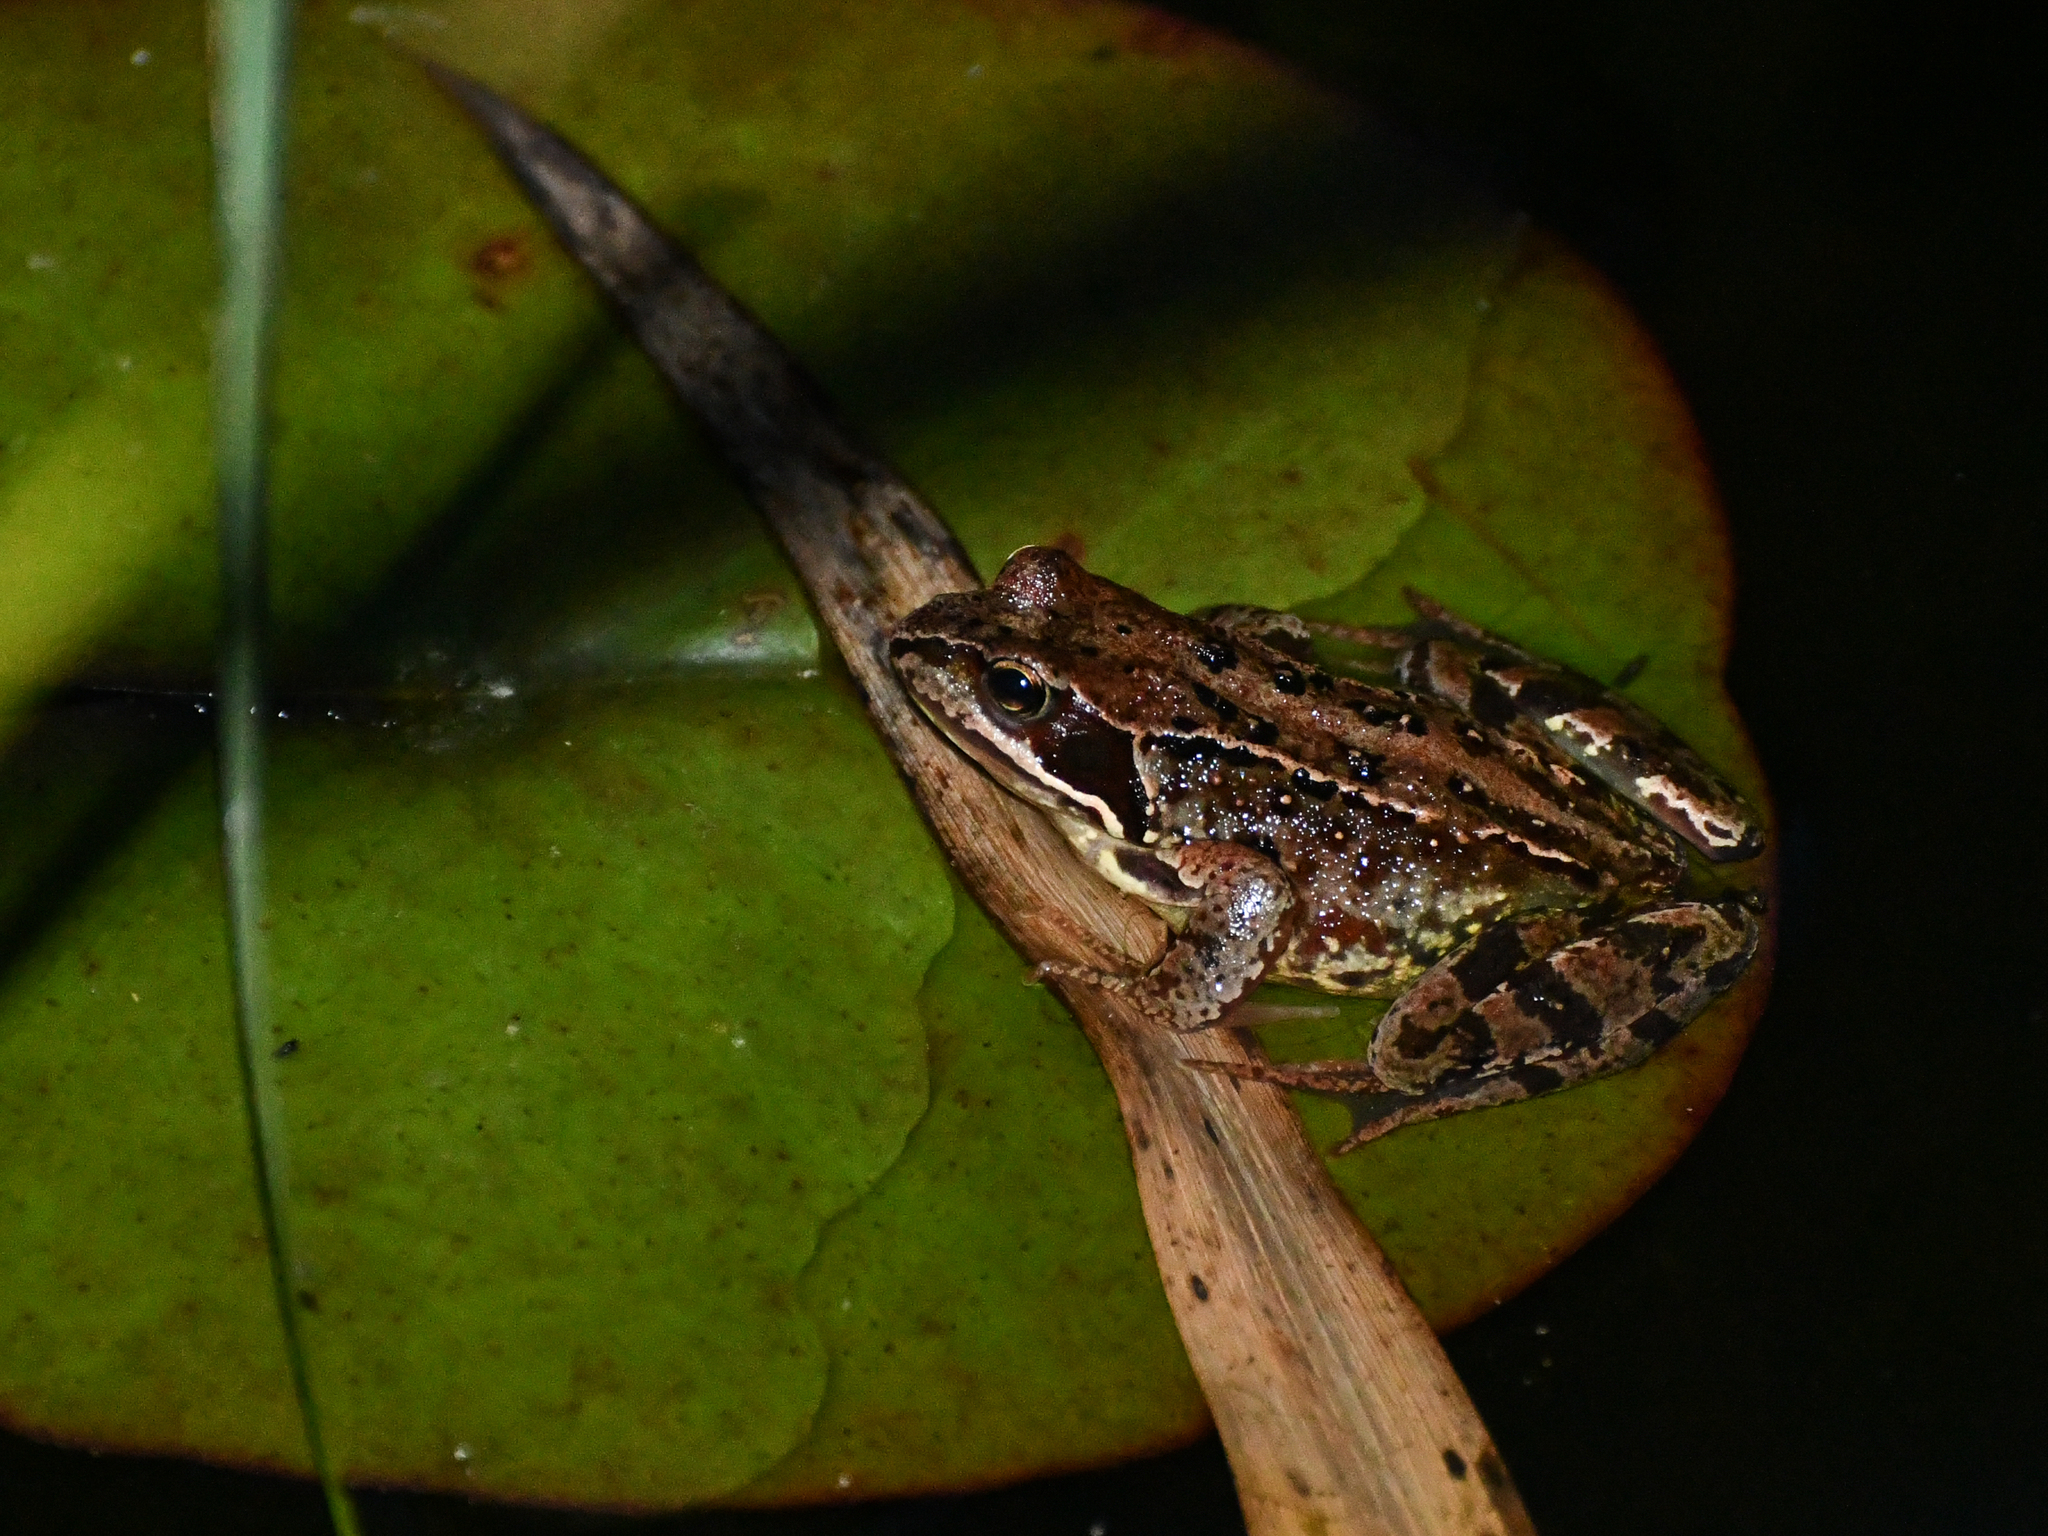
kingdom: Animalia
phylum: Chordata
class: Amphibia
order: Anura
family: Ranidae
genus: Rana
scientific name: Rana temporaria
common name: Common frog
